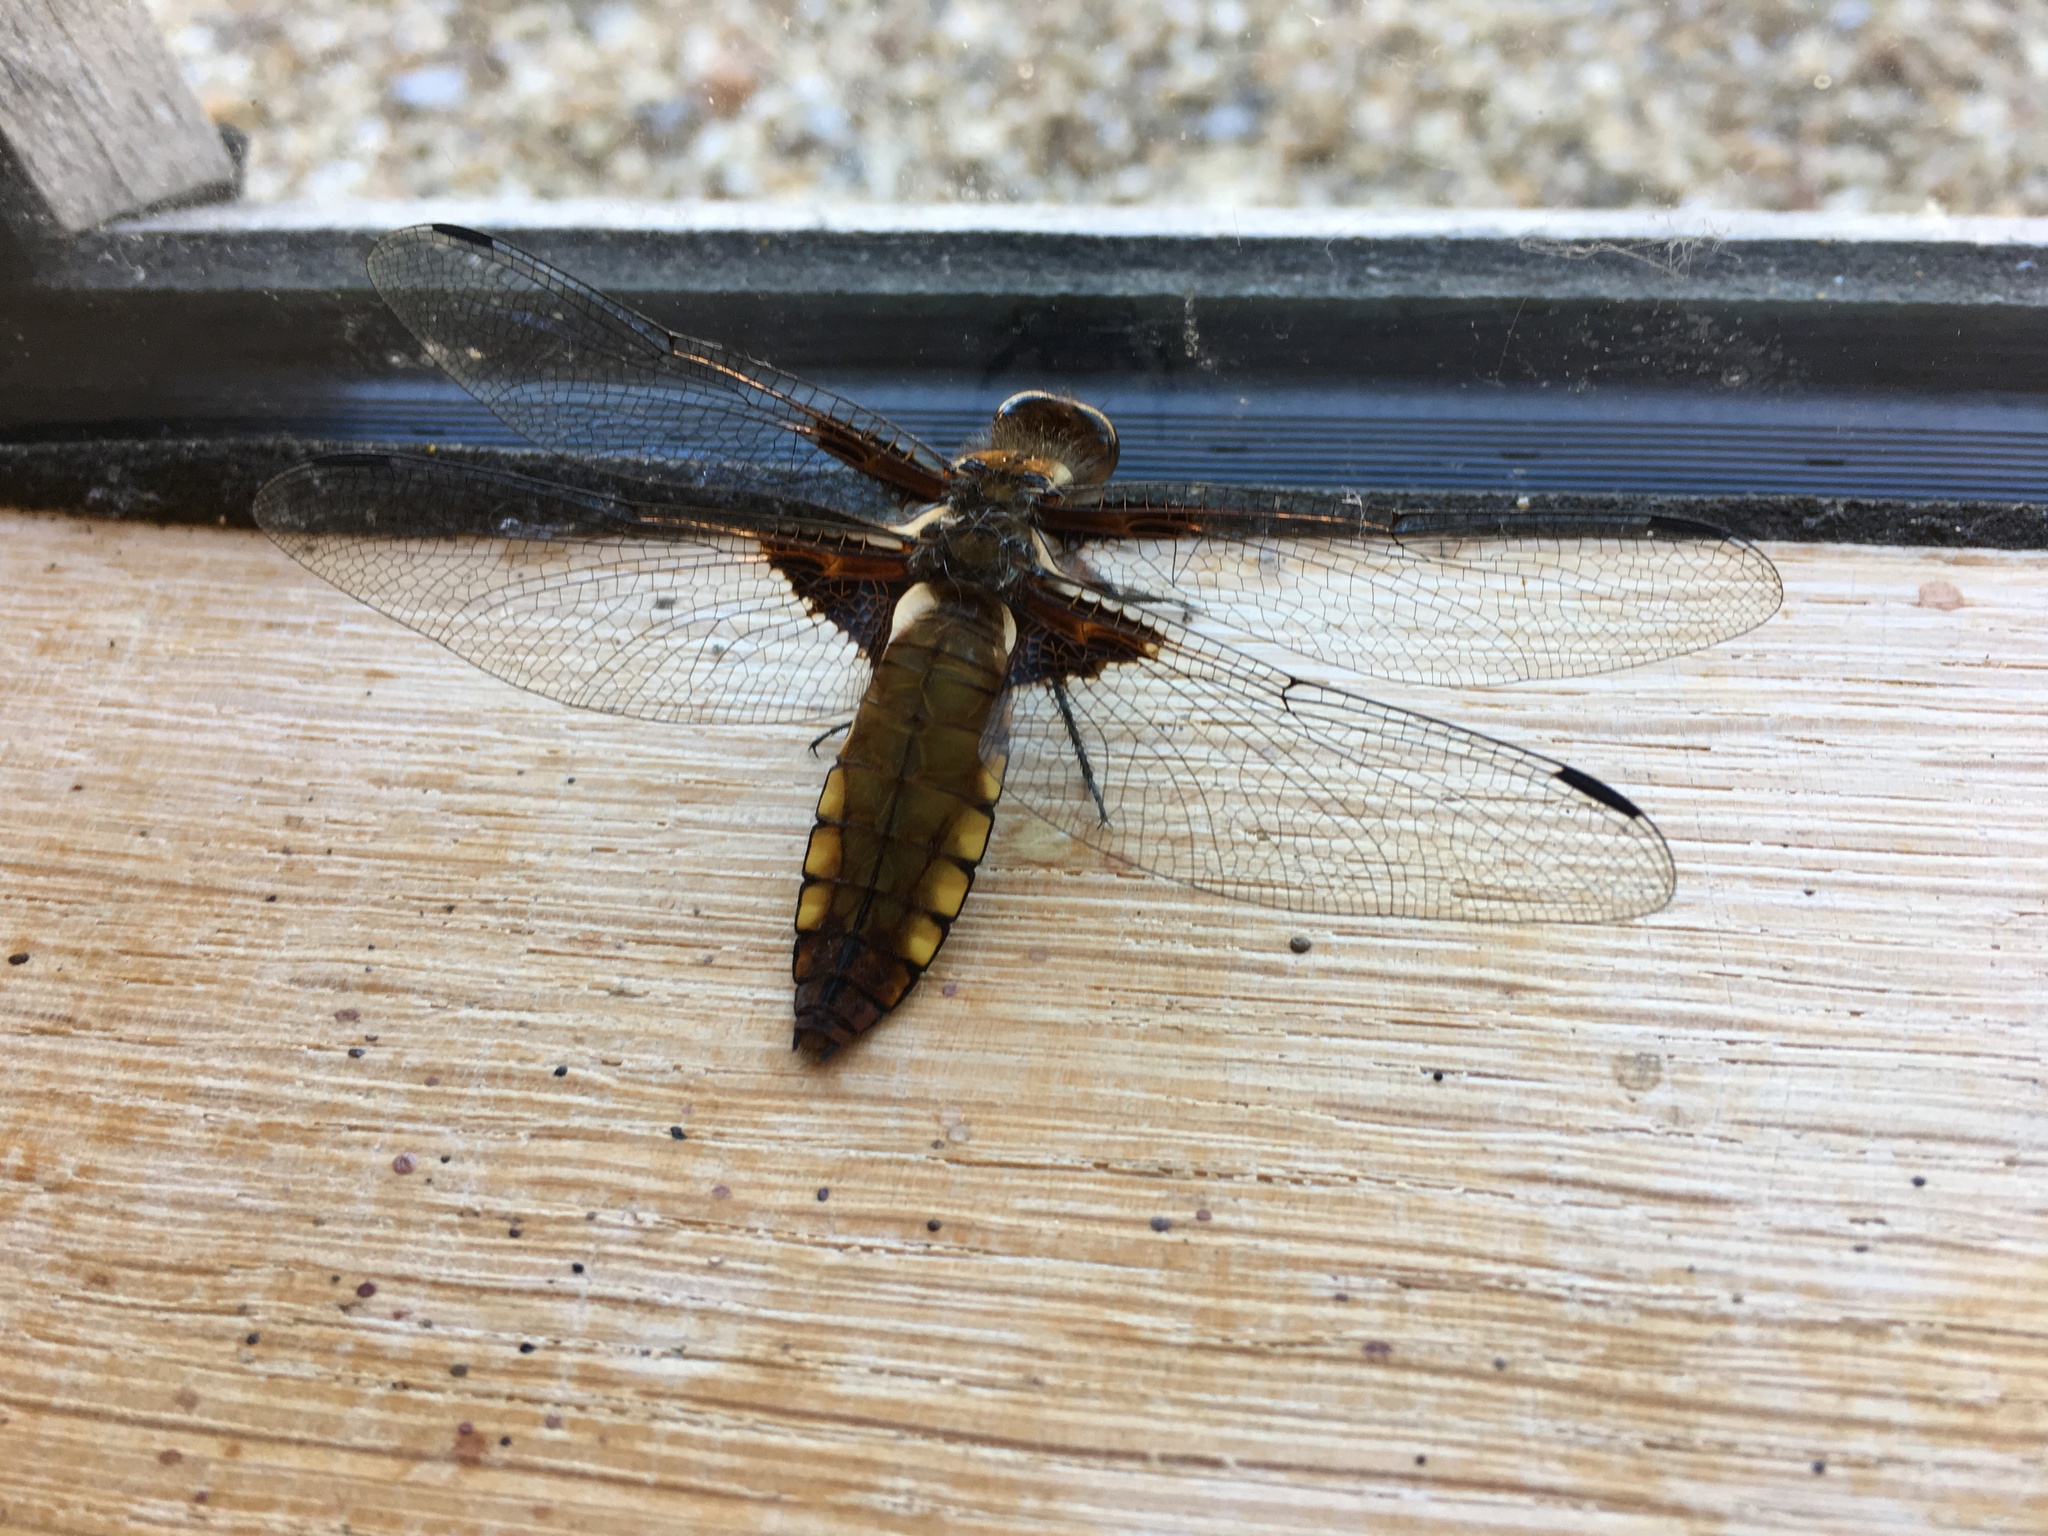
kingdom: Animalia
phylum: Arthropoda
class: Insecta
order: Odonata
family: Libellulidae
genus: Libellula
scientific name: Libellula depressa
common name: Broad-bodied chaser
